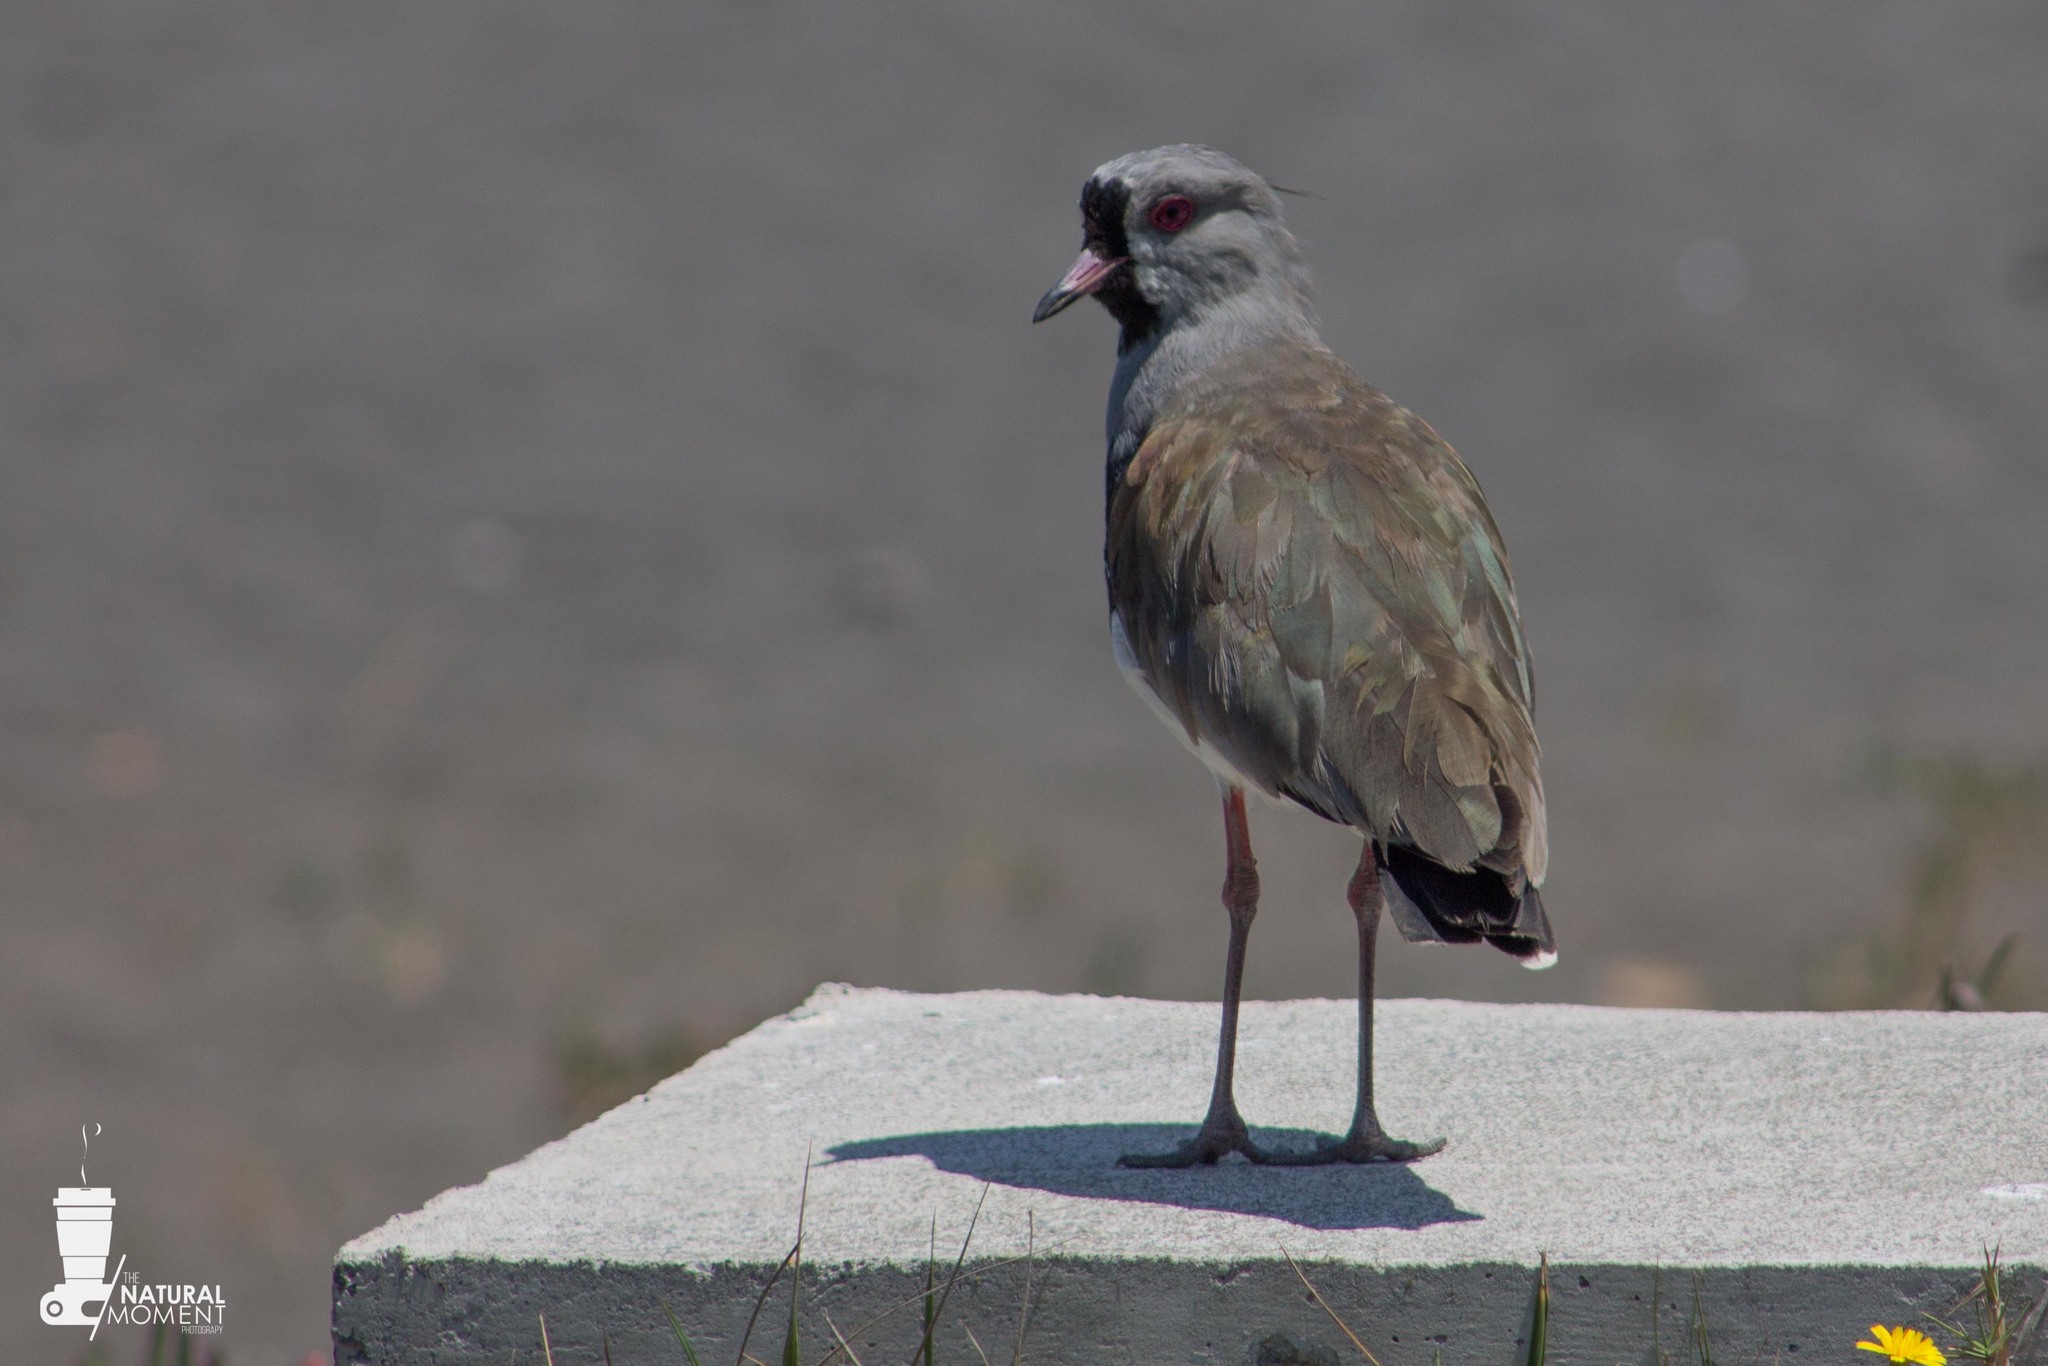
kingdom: Animalia
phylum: Chordata
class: Aves
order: Charadriiformes
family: Charadriidae
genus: Vanellus
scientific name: Vanellus chilensis
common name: Southern lapwing
